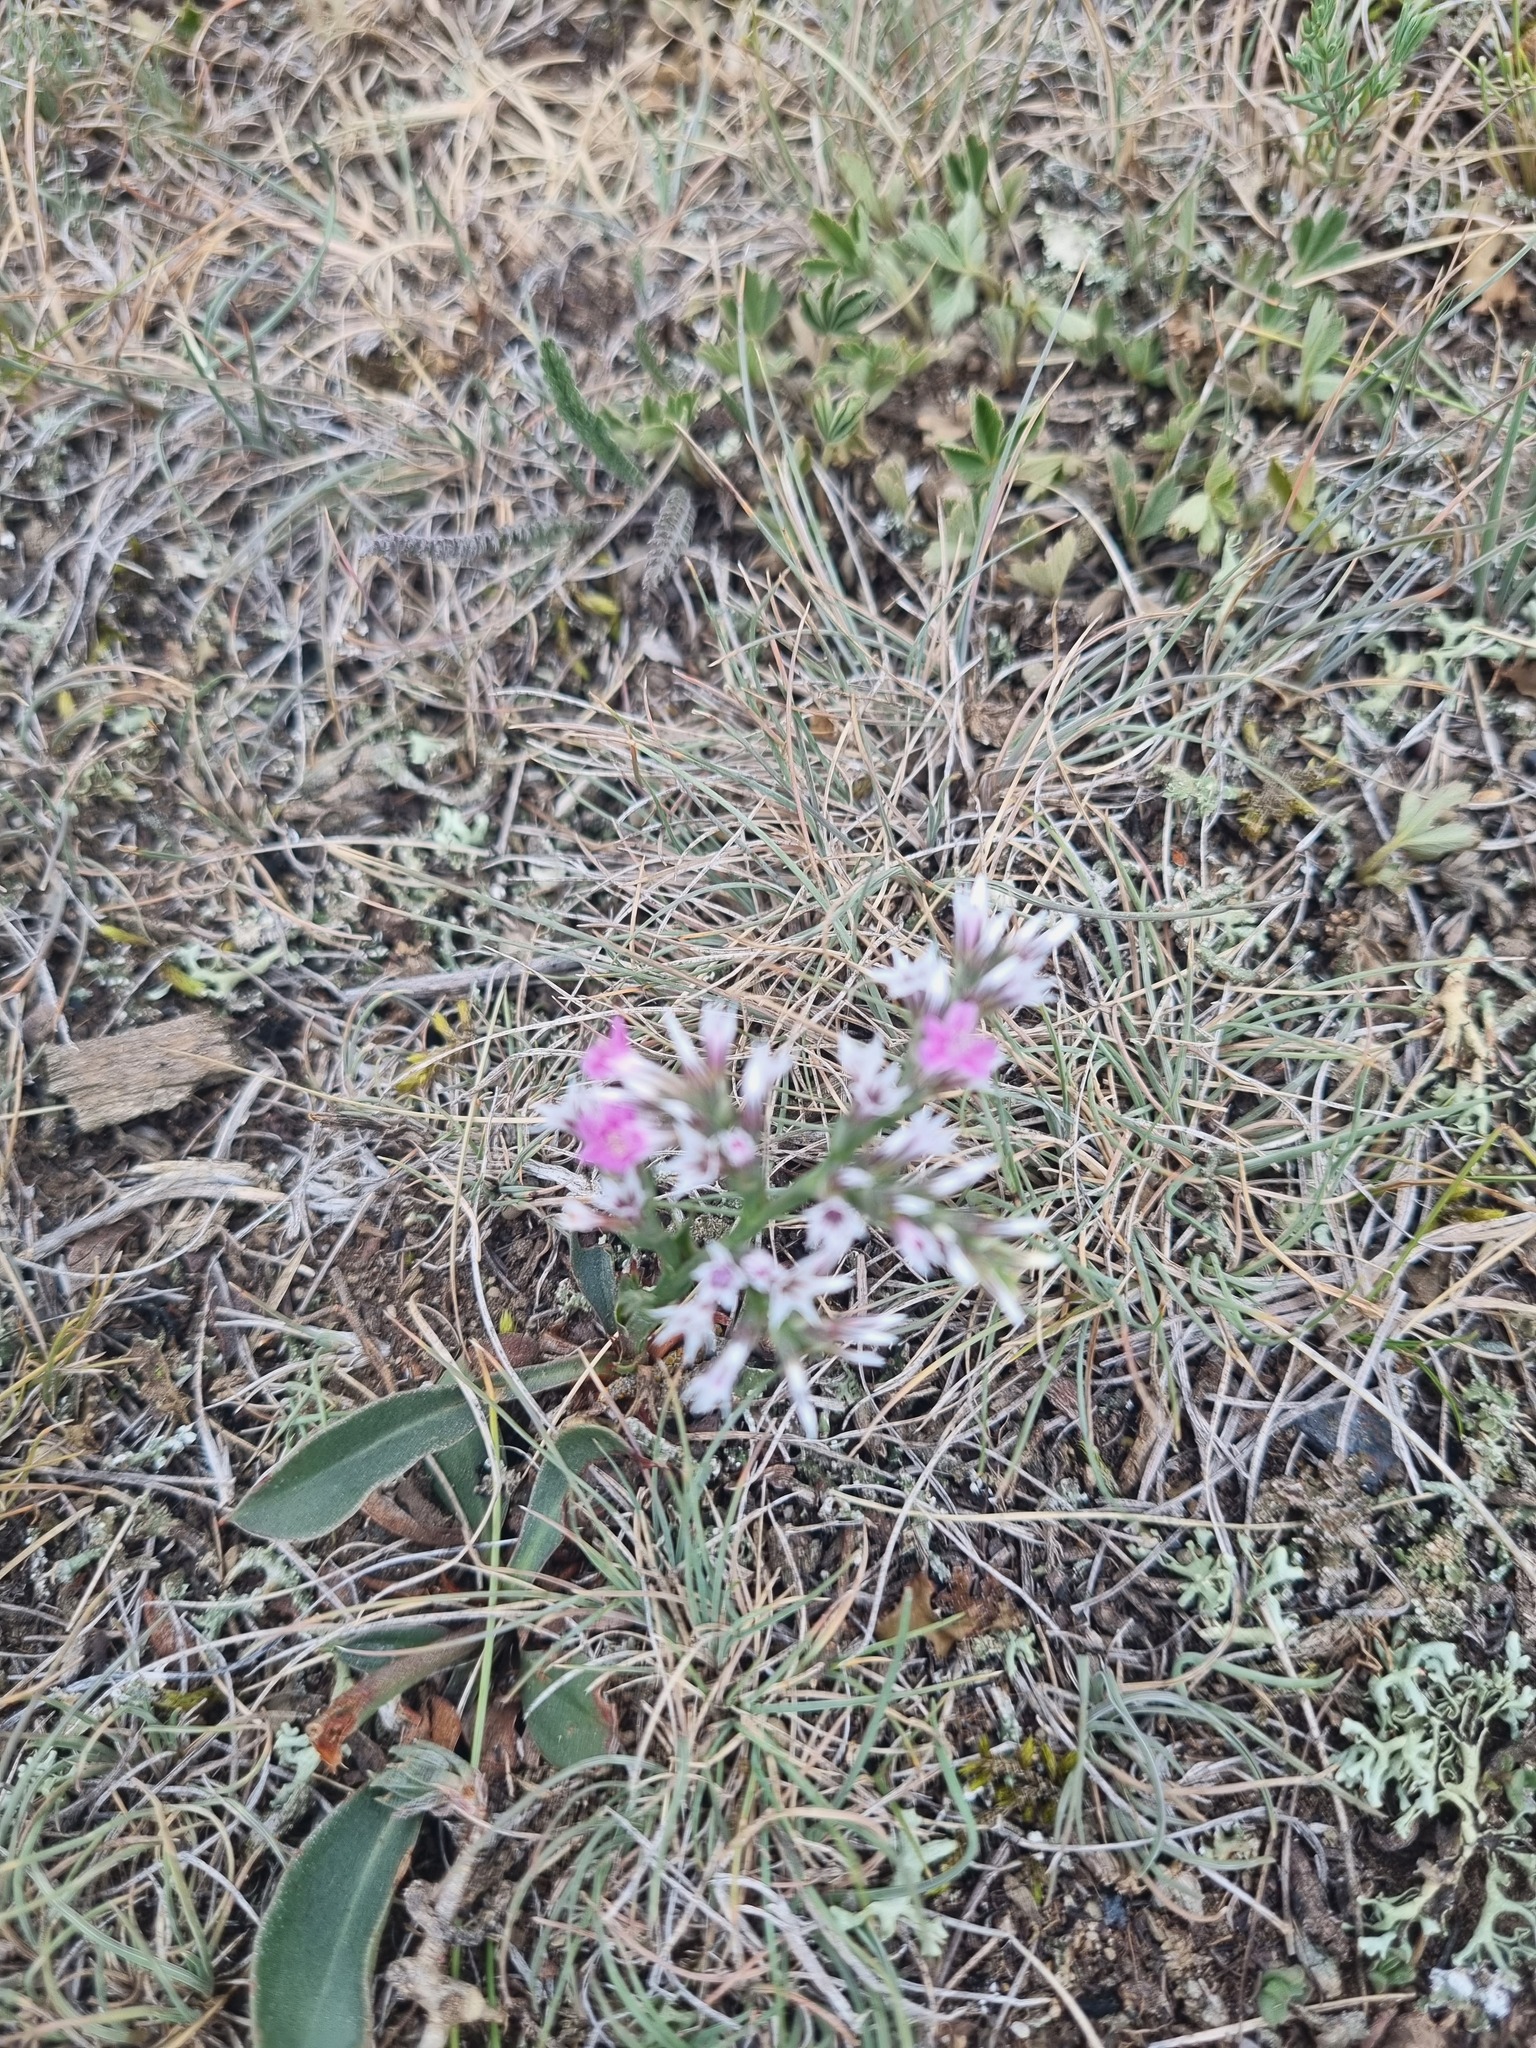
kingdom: Plantae
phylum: Tracheophyta
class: Magnoliopsida
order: Caryophyllales
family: Plumbaginaceae
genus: Goniolimon
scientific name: Goniolimon tataricum
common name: Statice
